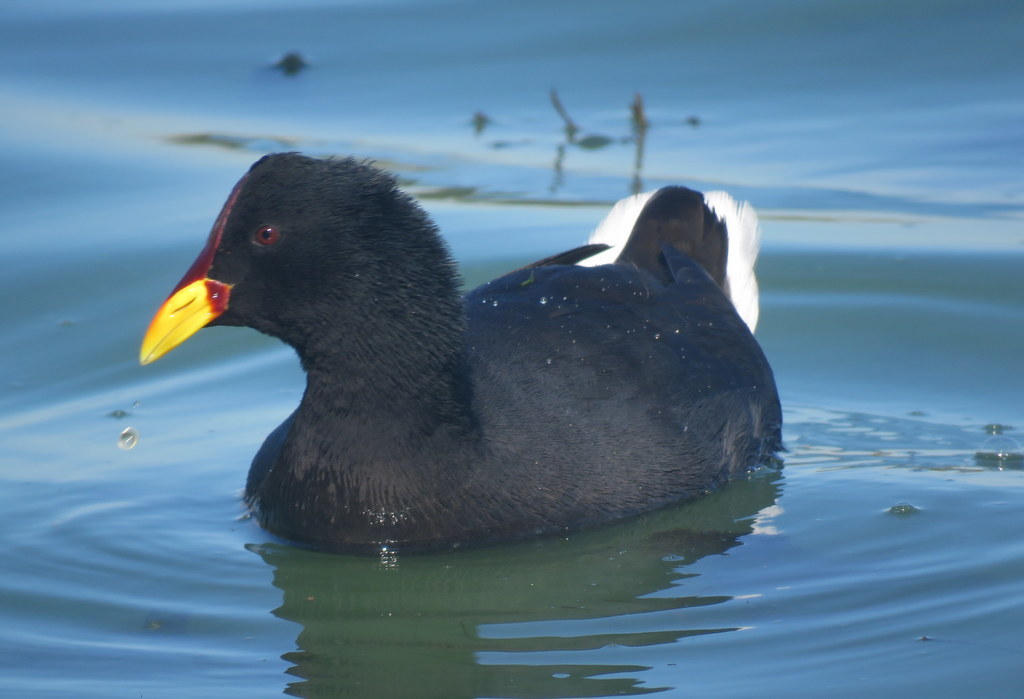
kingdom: Animalia
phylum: Chordata
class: Aves
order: Gruiformes
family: Rallidae
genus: Fulica
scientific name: Fulica rufifrons
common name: Red-fronted coot
